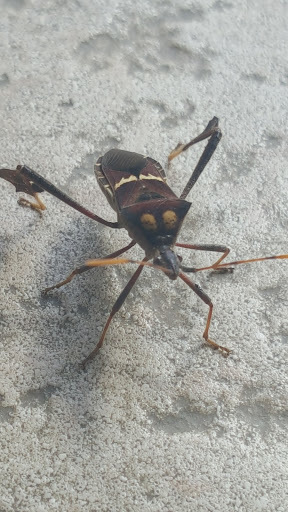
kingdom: Animalia
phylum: Arthropoda
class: Insecta
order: Hemiptera
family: Coreidae
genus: Leptoglossus
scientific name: Leptoglossus zonatus
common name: Large-legged bug
